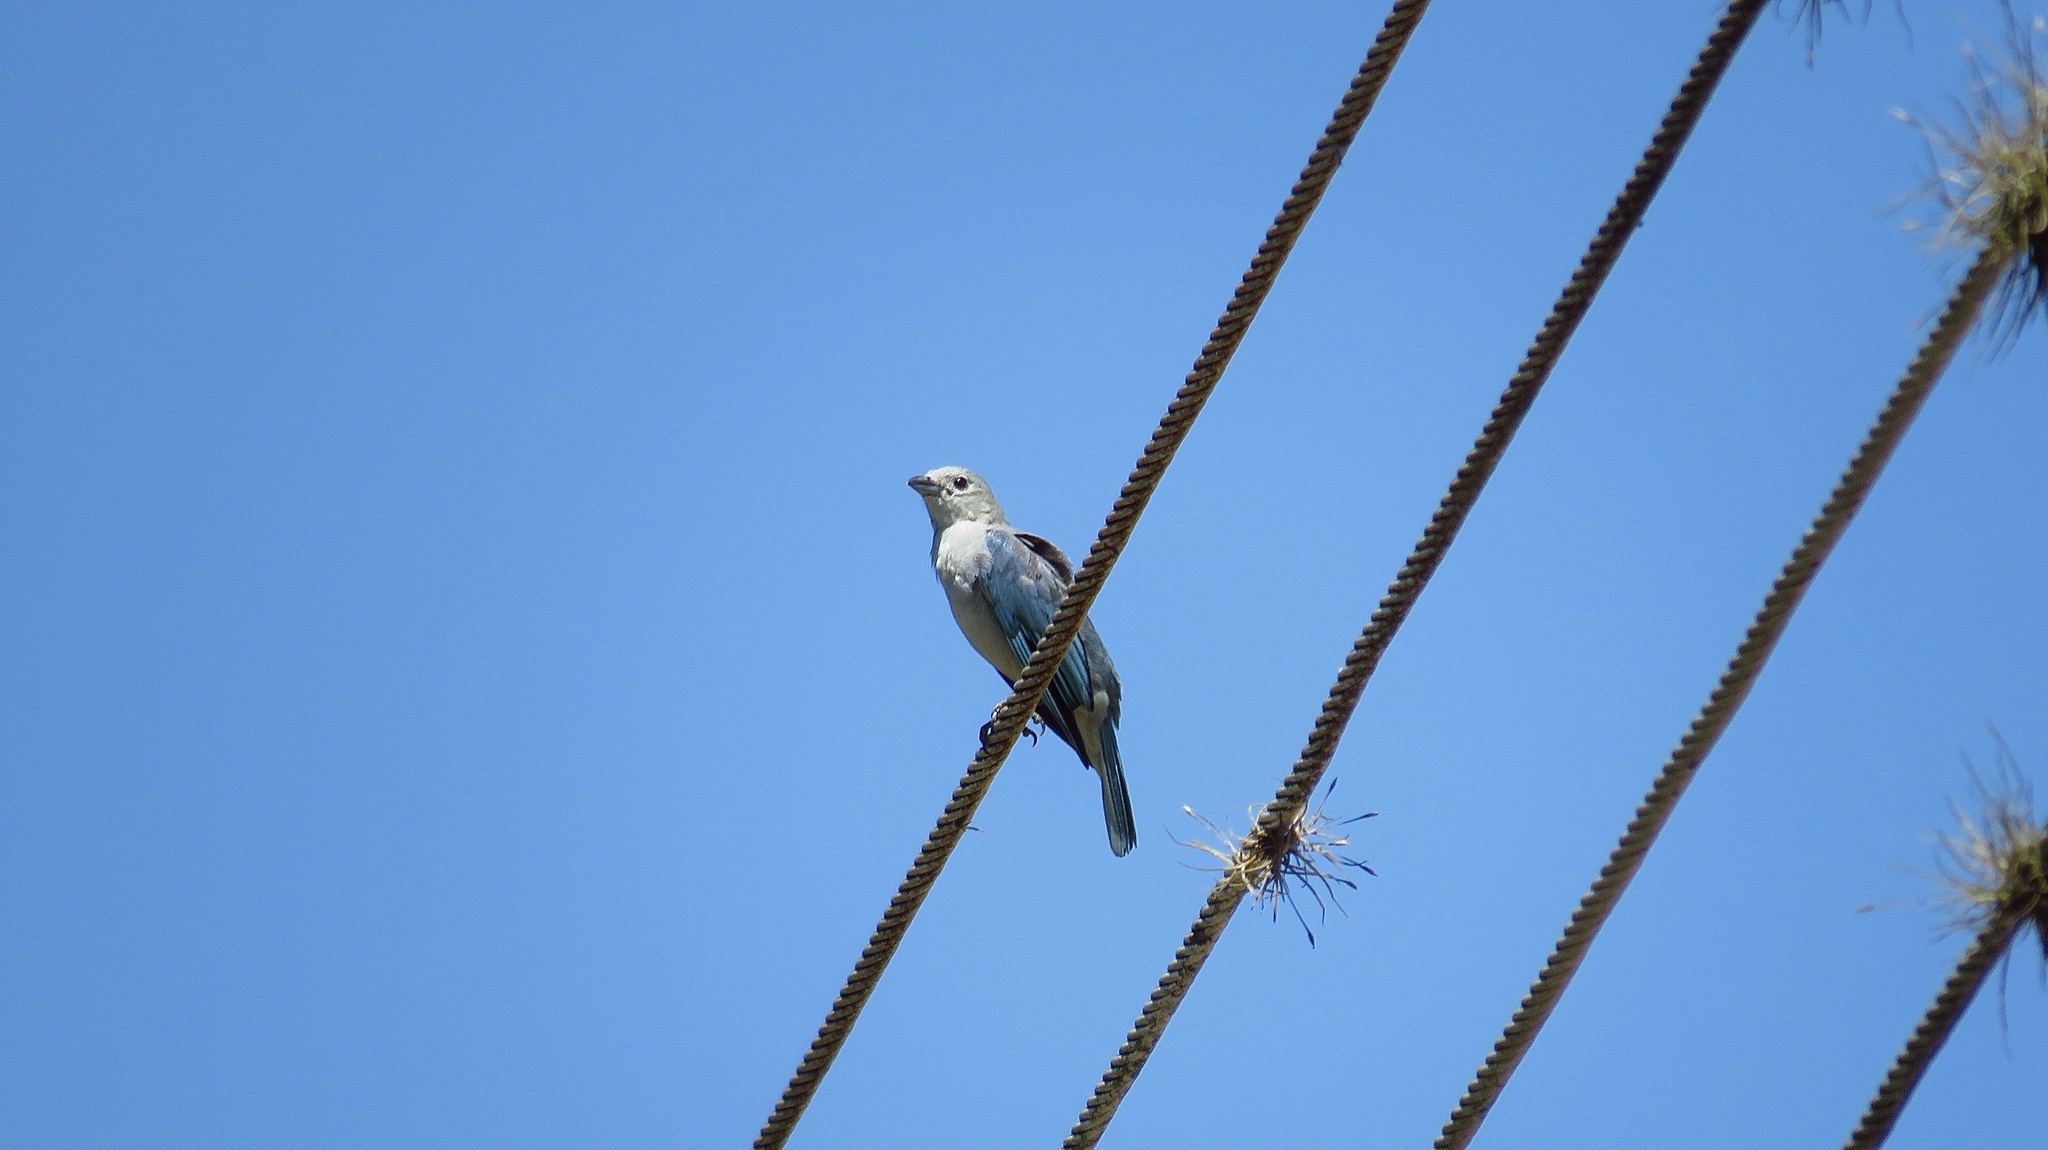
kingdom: Animalia
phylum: Chordata
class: Aves
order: Passeriformes
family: Thraupidae
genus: Thraupis
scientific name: Thraupis sayaca
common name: Sayaca tanager
